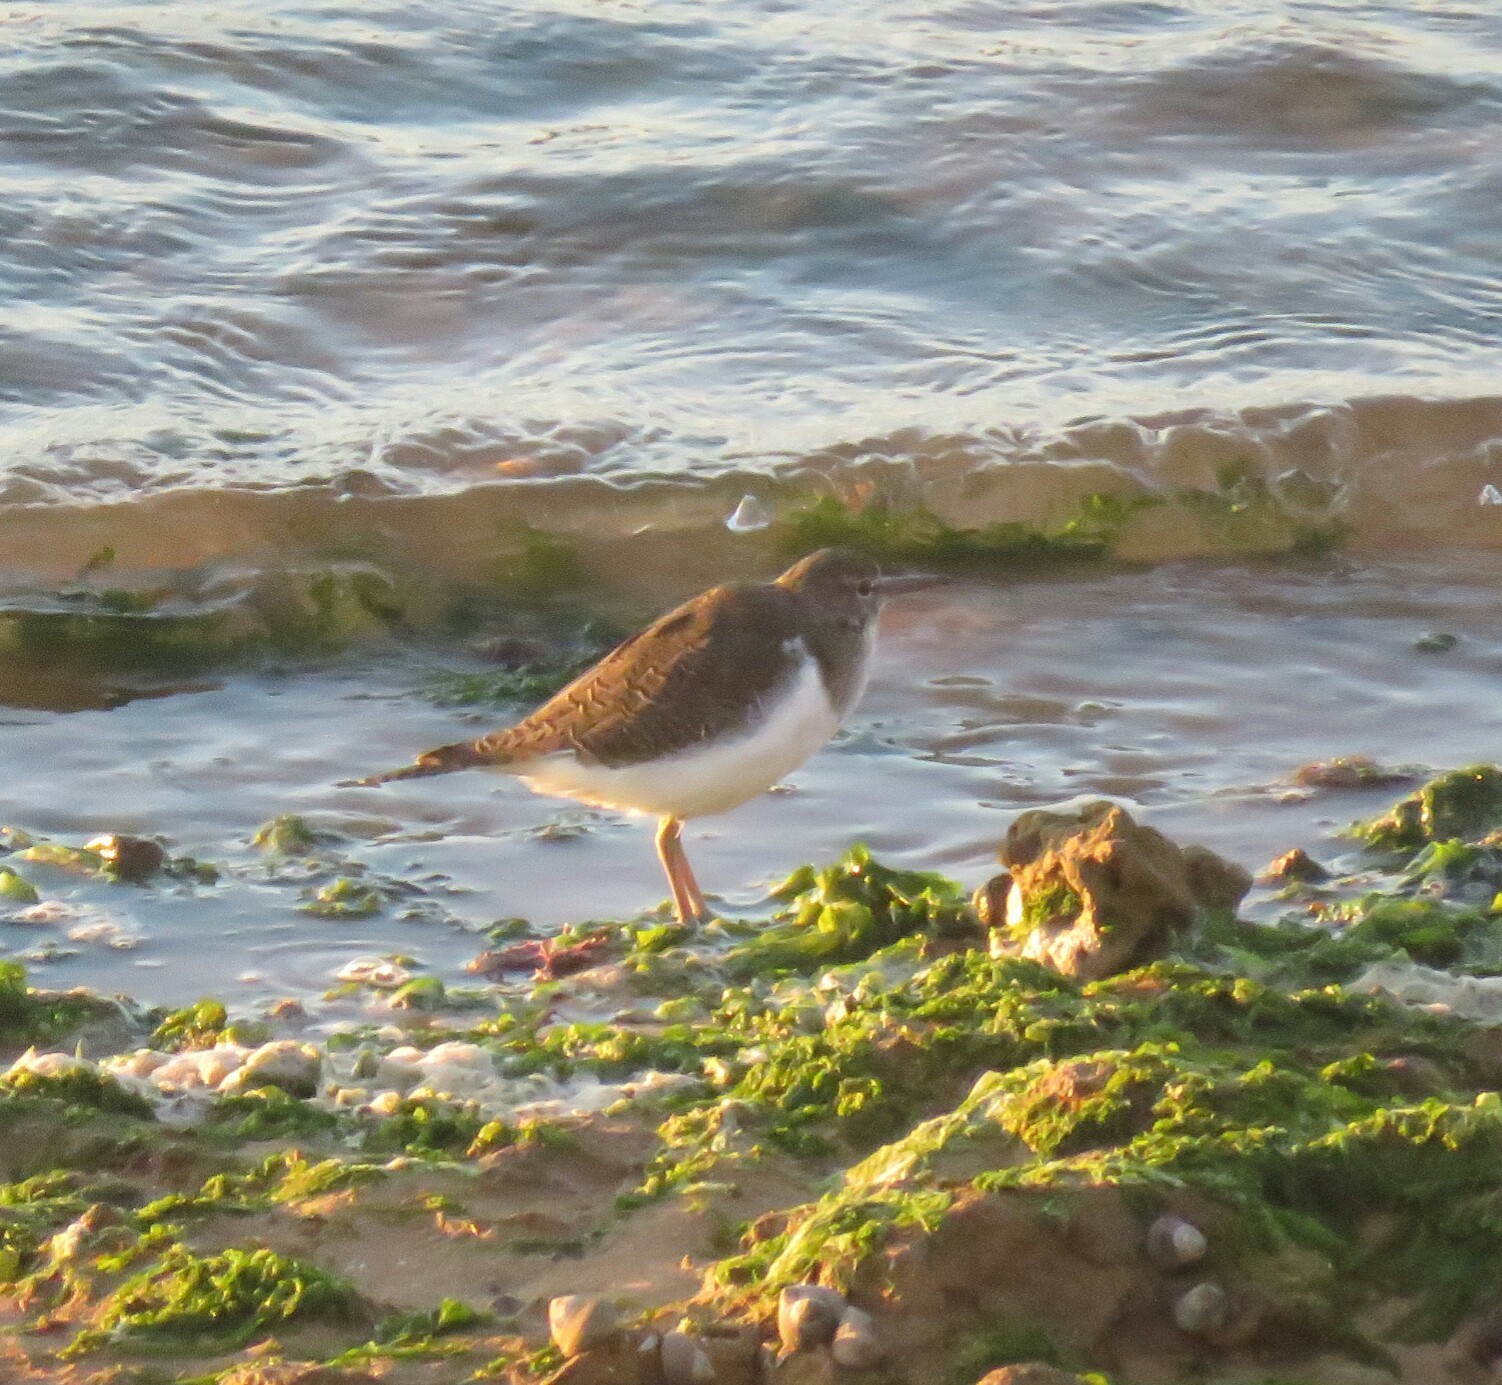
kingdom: Animalia
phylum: Chordata
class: Aves
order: Charadriiformes
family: Scolopacidae
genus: Actitis
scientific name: Actitis hypoleucos
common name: Common sandpiper
